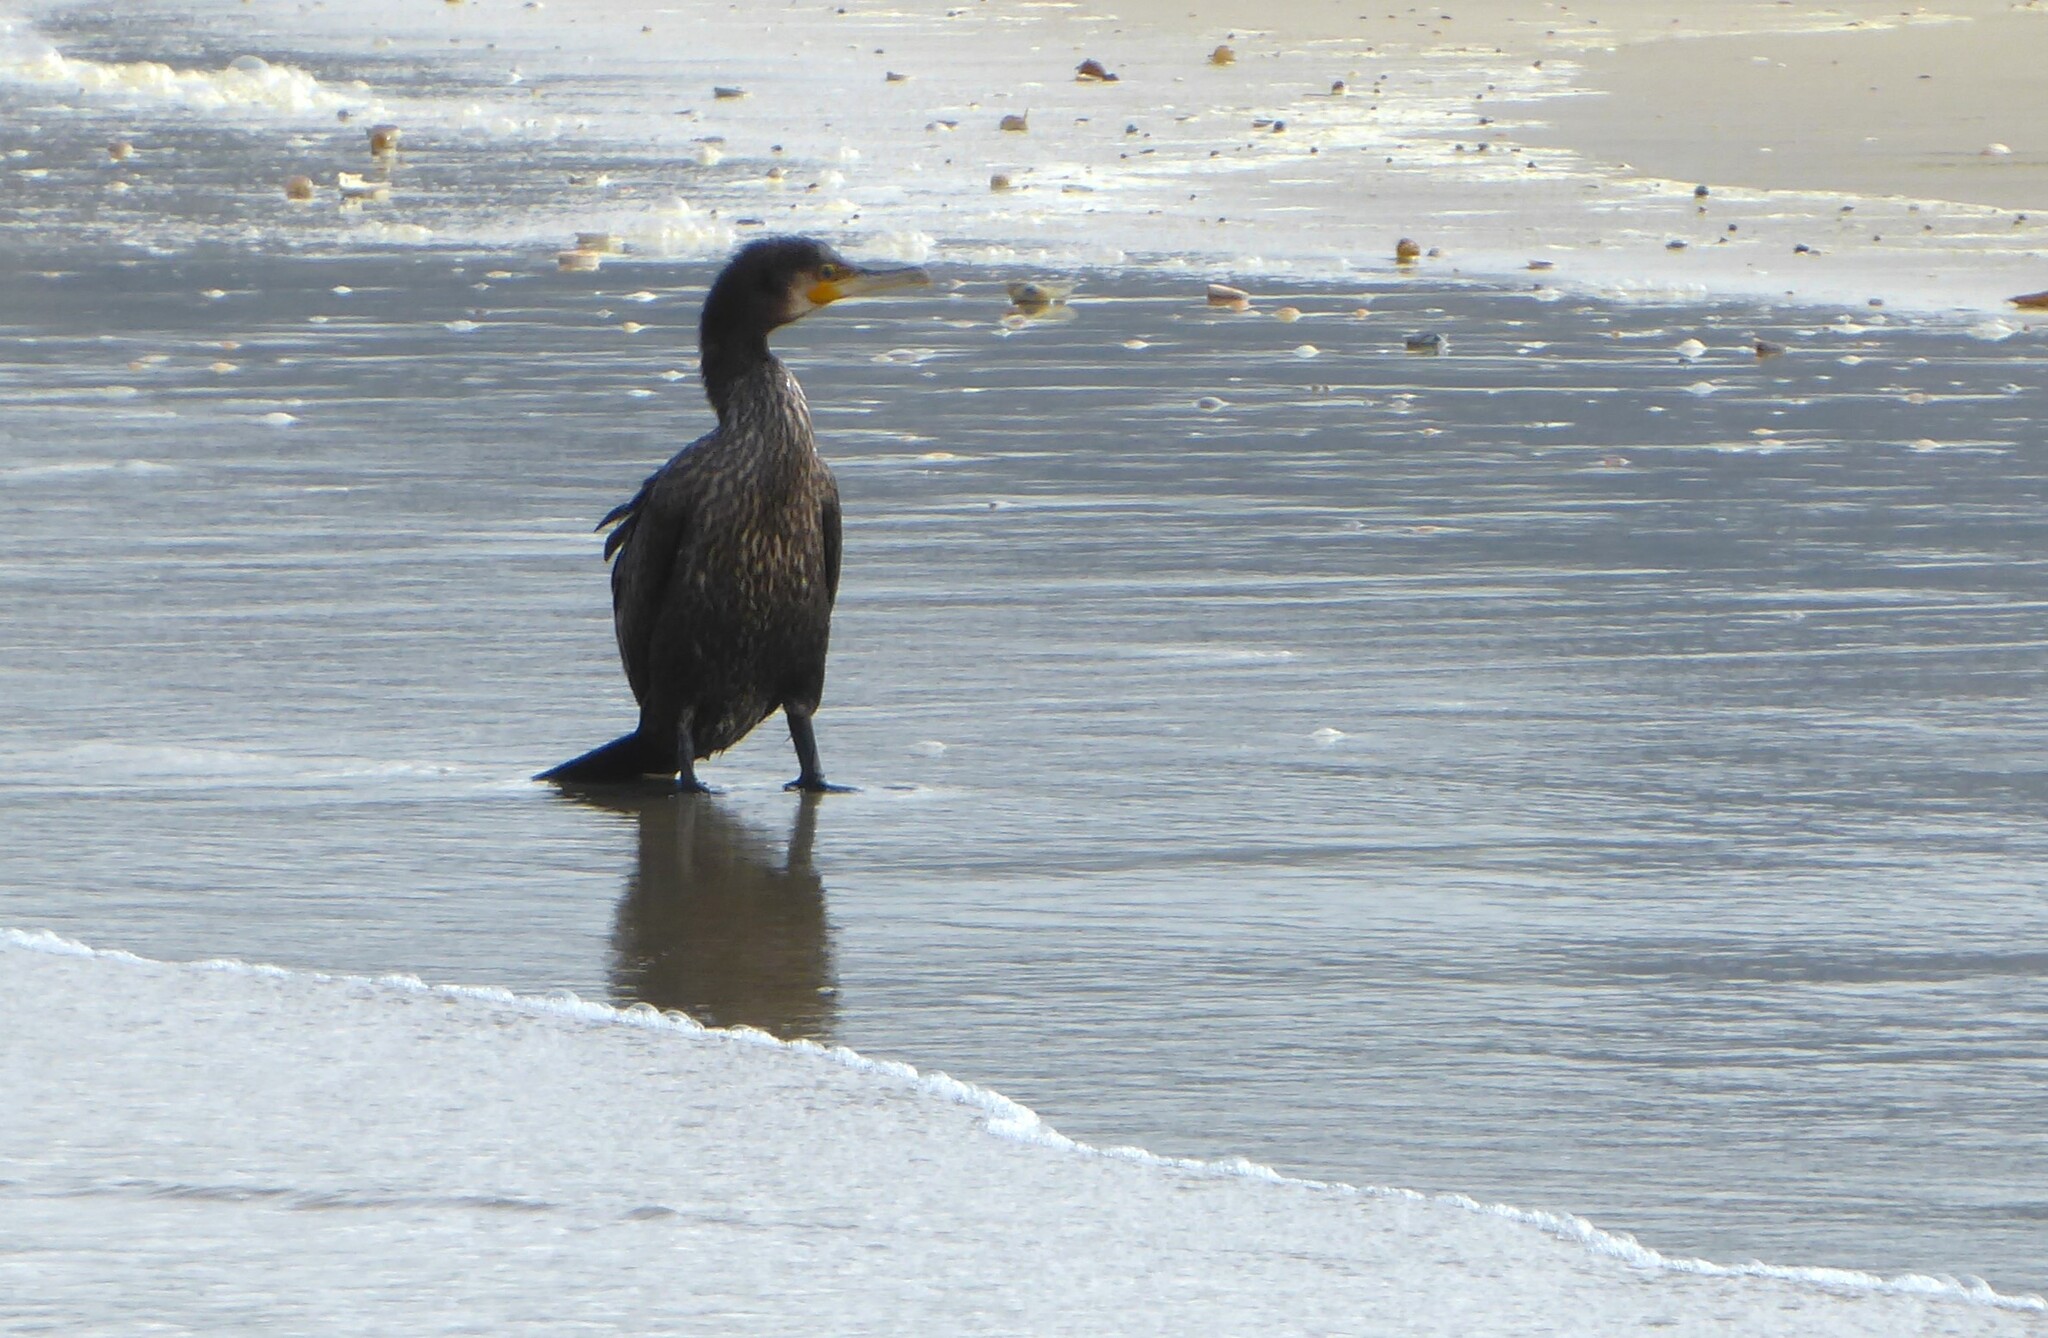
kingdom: Animalia
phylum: Chordata
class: Aves
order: Suliformes
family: Phalacrocoracidae
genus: Phalacrocorax
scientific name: Phalacrocorax carbo
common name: Great cormorant
